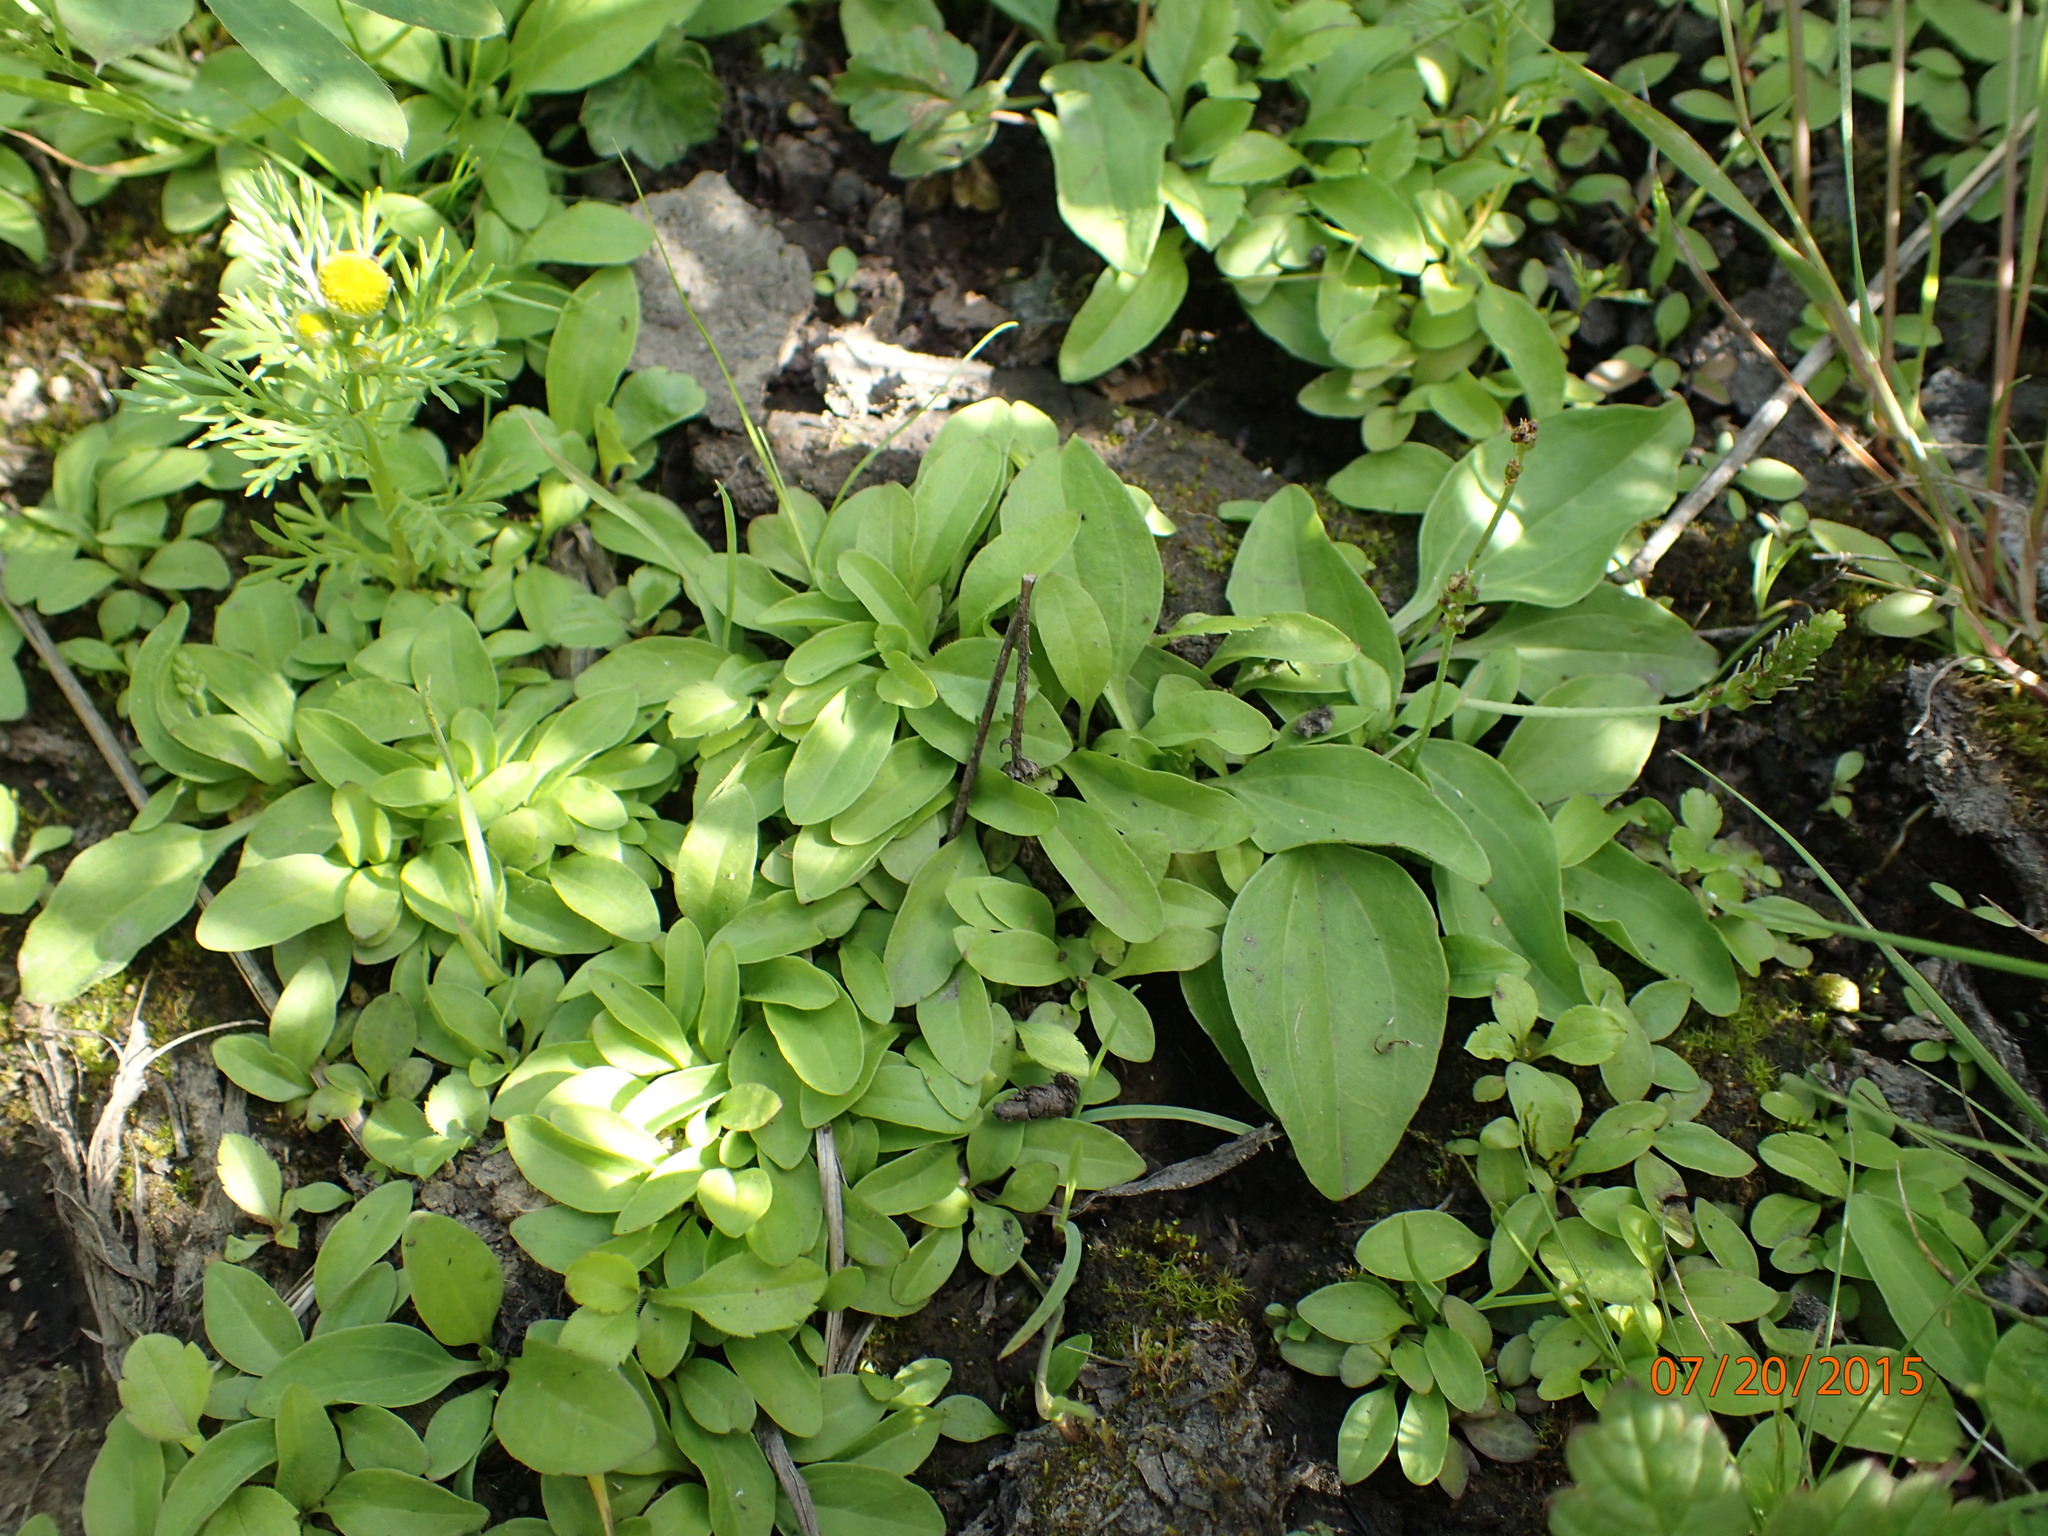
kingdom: Plantae
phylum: Tracheophyta
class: Magnoliopsida
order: Lamiales
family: Plantaginaceae
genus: Plantago
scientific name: Plantago major
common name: Common plantain
